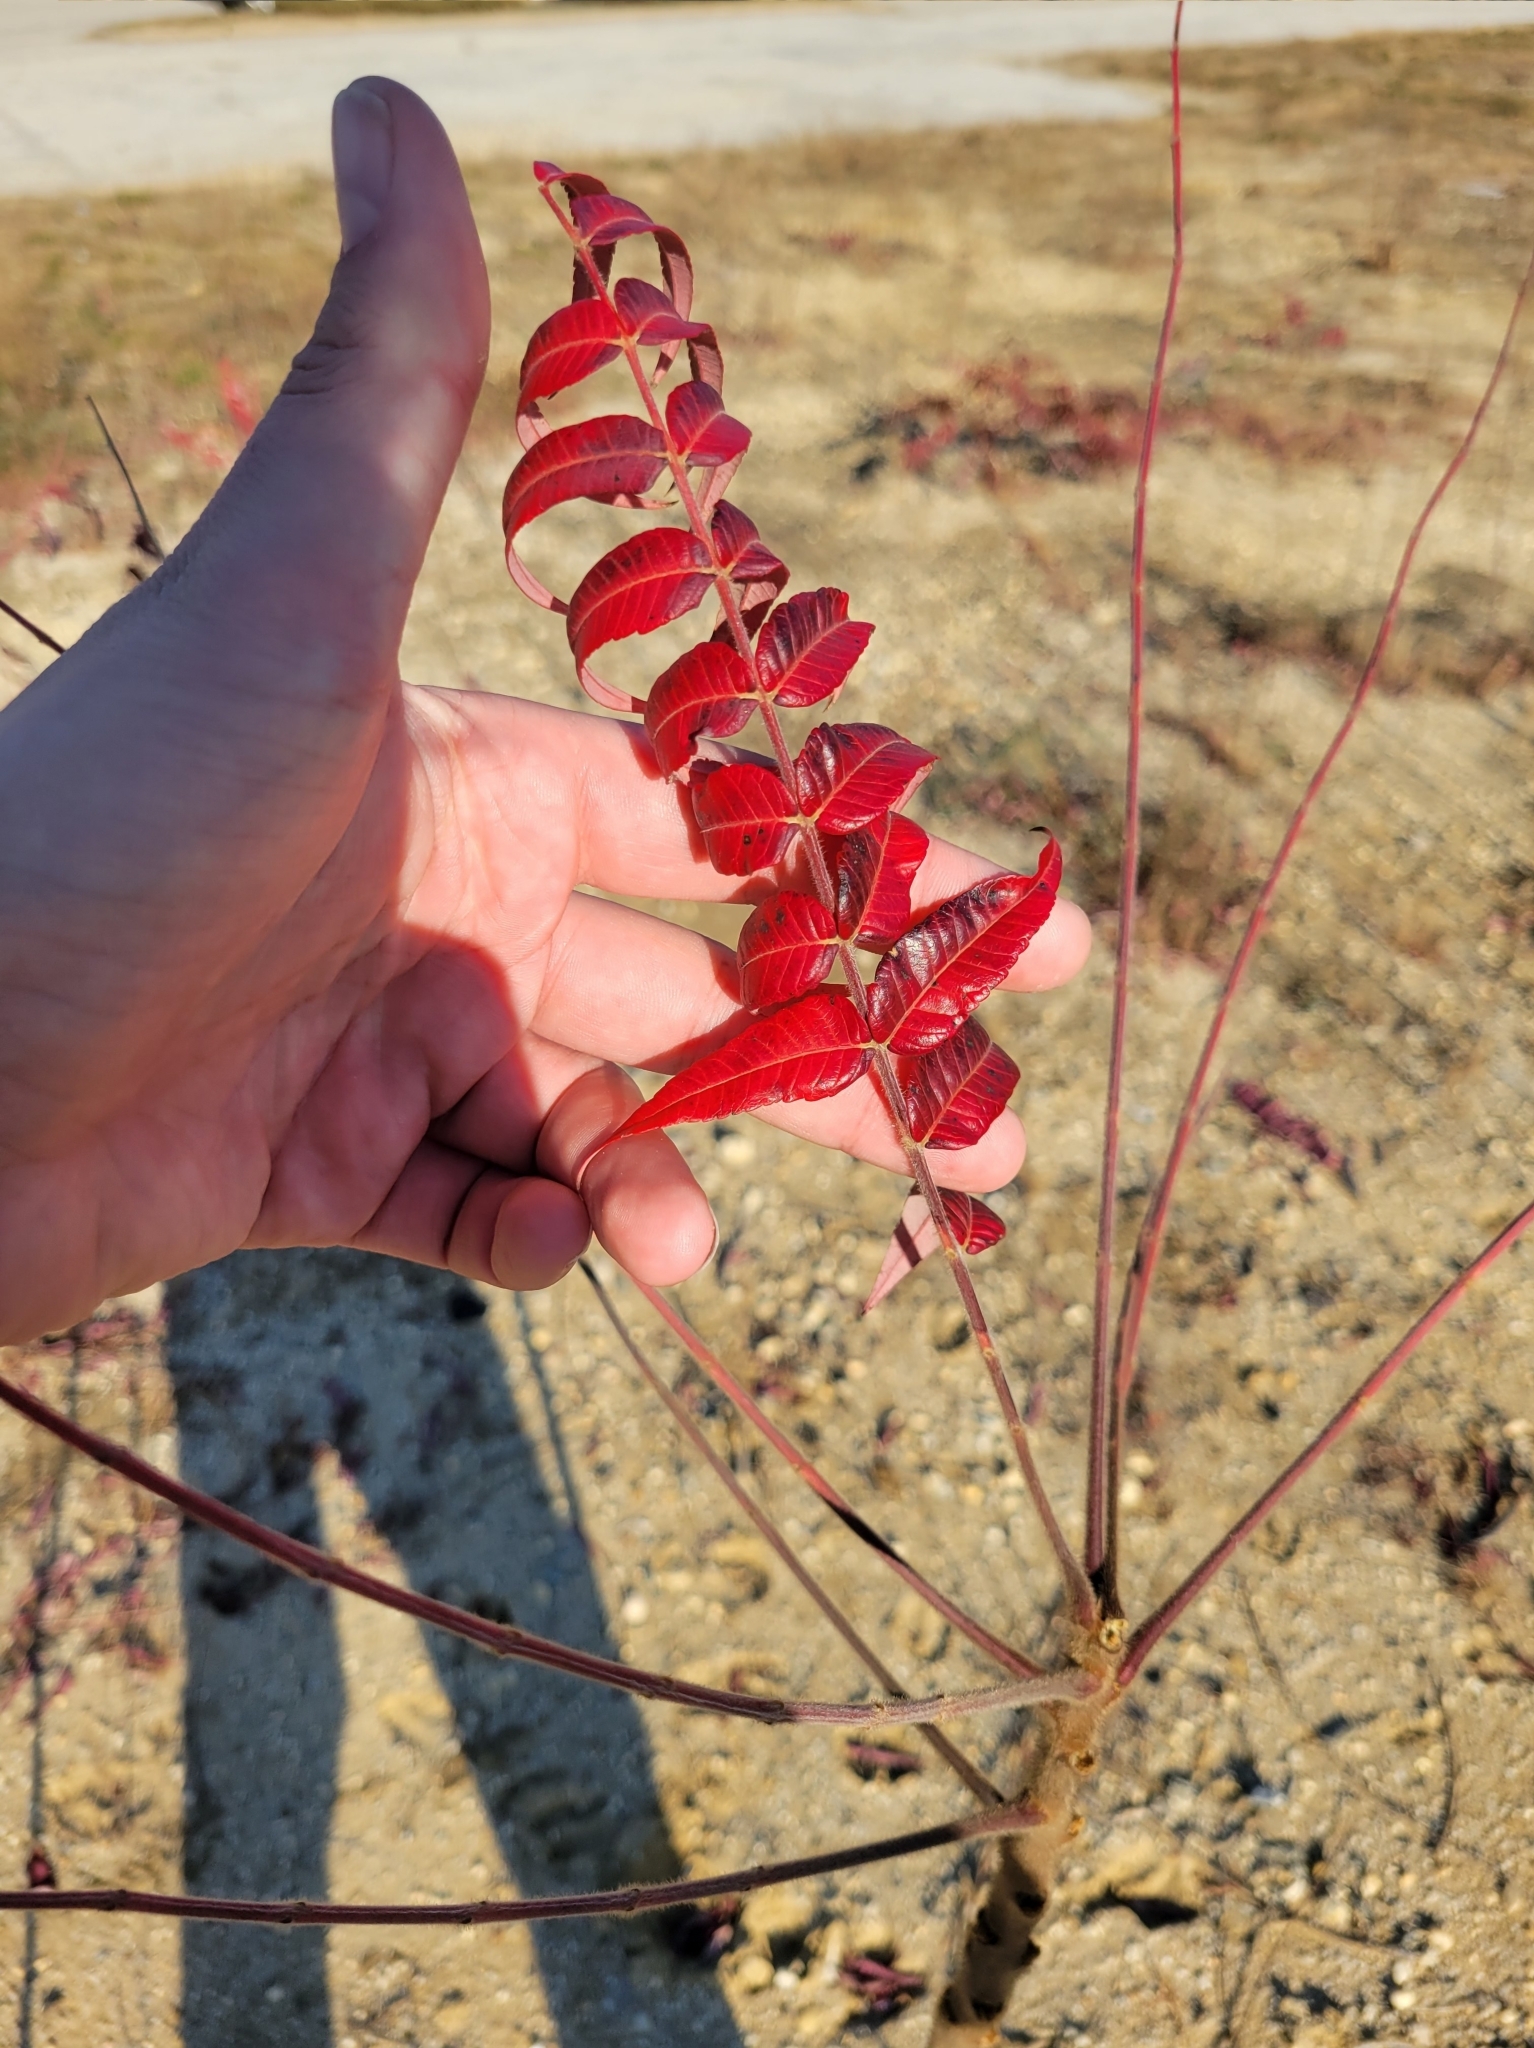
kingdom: Plantae
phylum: Tracheophyta
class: Magnoliopsida
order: Sapindales
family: Anacardiaceae
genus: Rhus
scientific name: Rhus typhina
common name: Staghorn sumac
